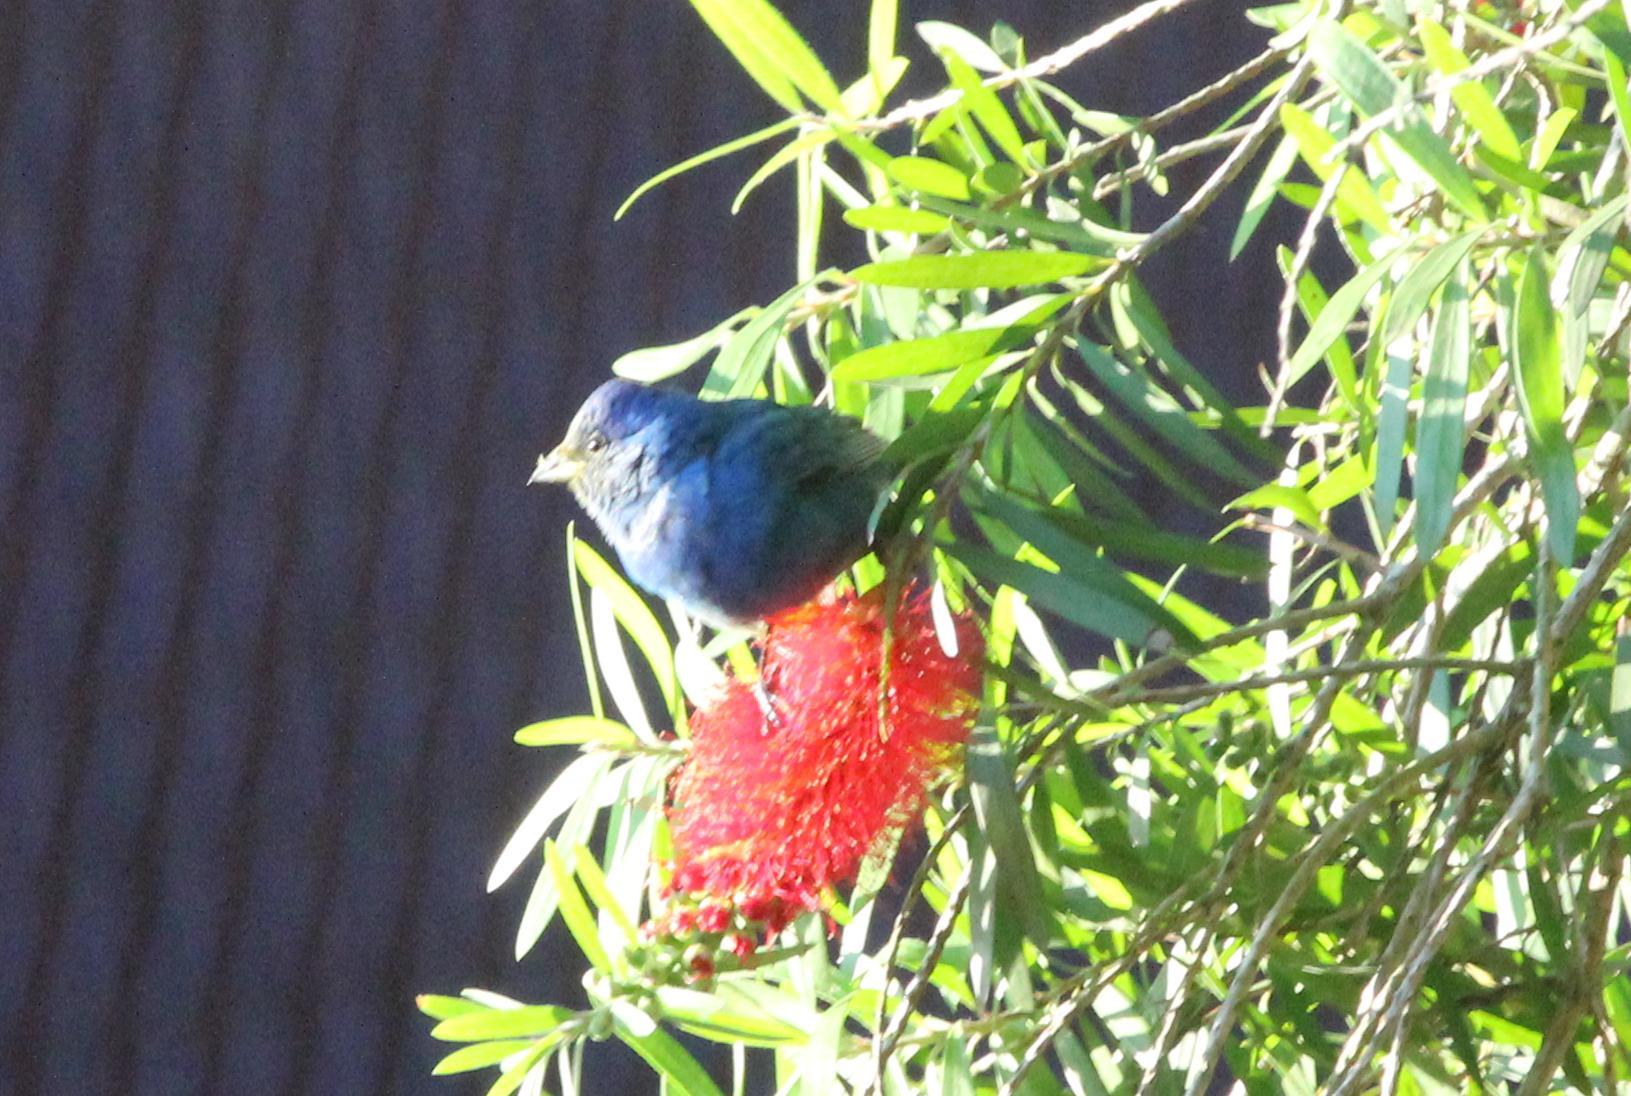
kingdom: Animalia
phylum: Chordata
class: Aves
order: Passeriformes
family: Cardinalidae
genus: Passerina
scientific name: Passerina cyanea
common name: Indigo bunting
